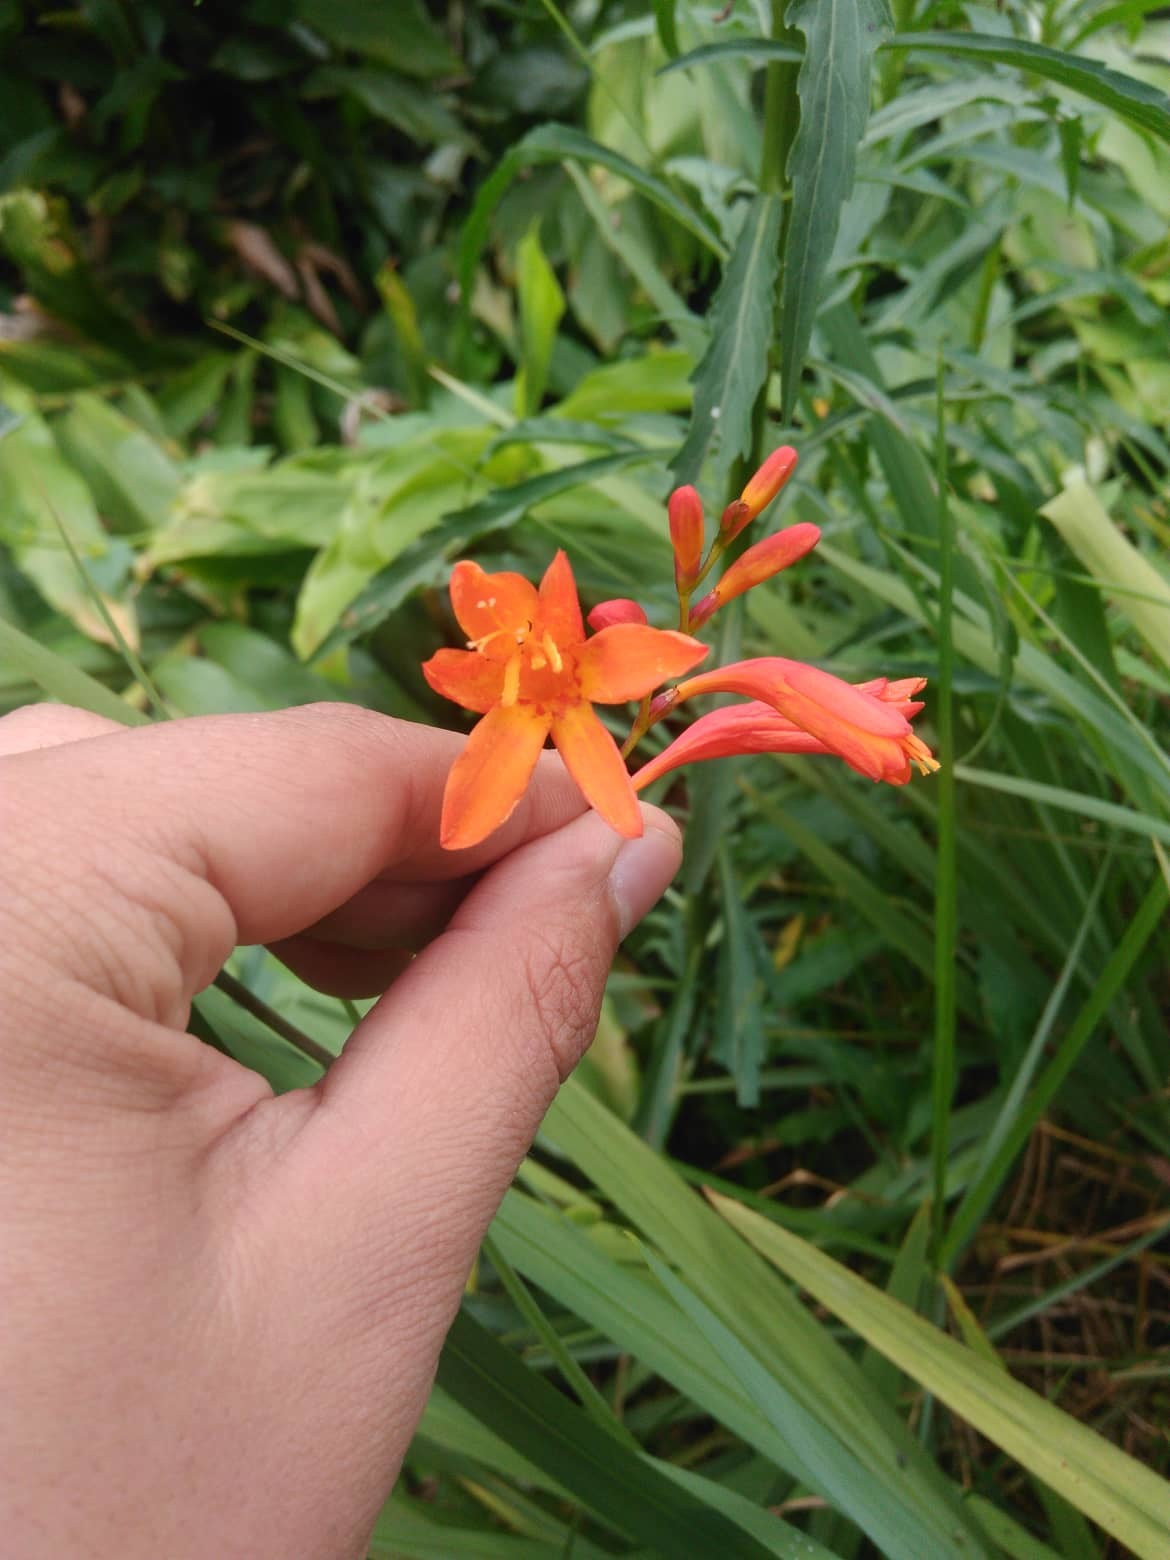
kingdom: Plantae
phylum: Tracheophyta
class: Liliopsida
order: Asparagales
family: Iridaceae
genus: Crocosmia
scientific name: Crocosmia crocosmiiflora
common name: Montbretia
